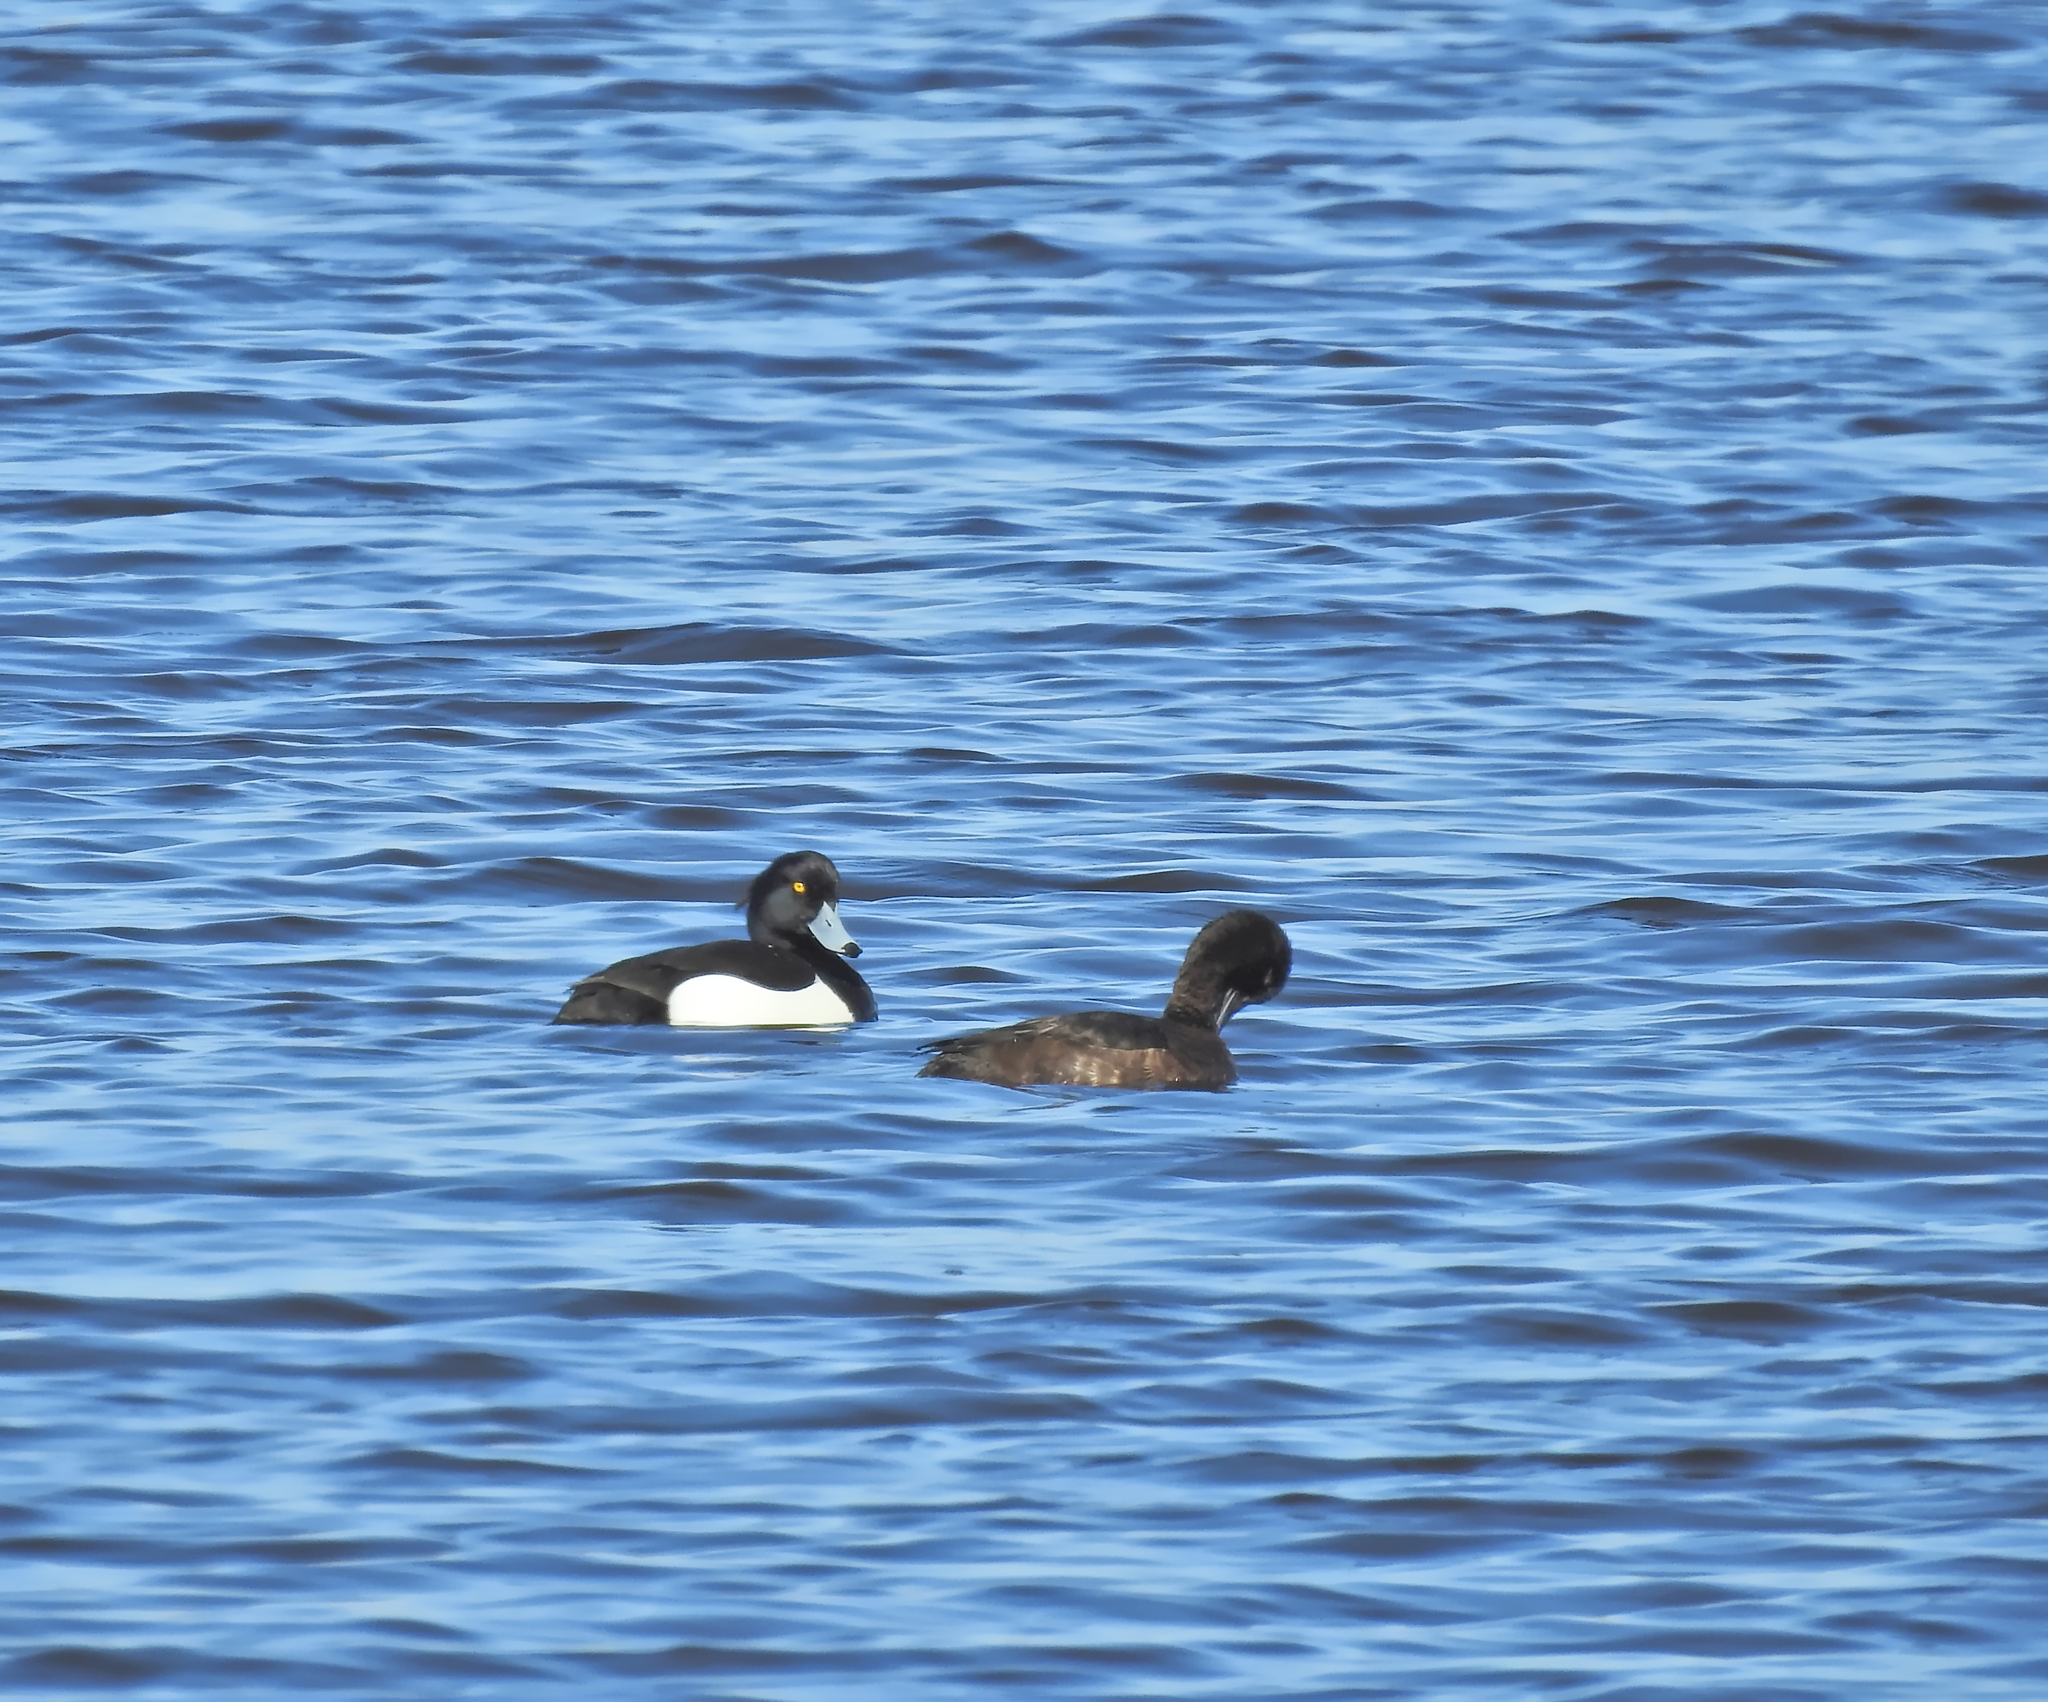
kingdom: Animalia
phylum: Chordata
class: Aves
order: Anseriformes
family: Anatidae
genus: Aythya
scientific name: Aythya fuligula
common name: Tufted duck
